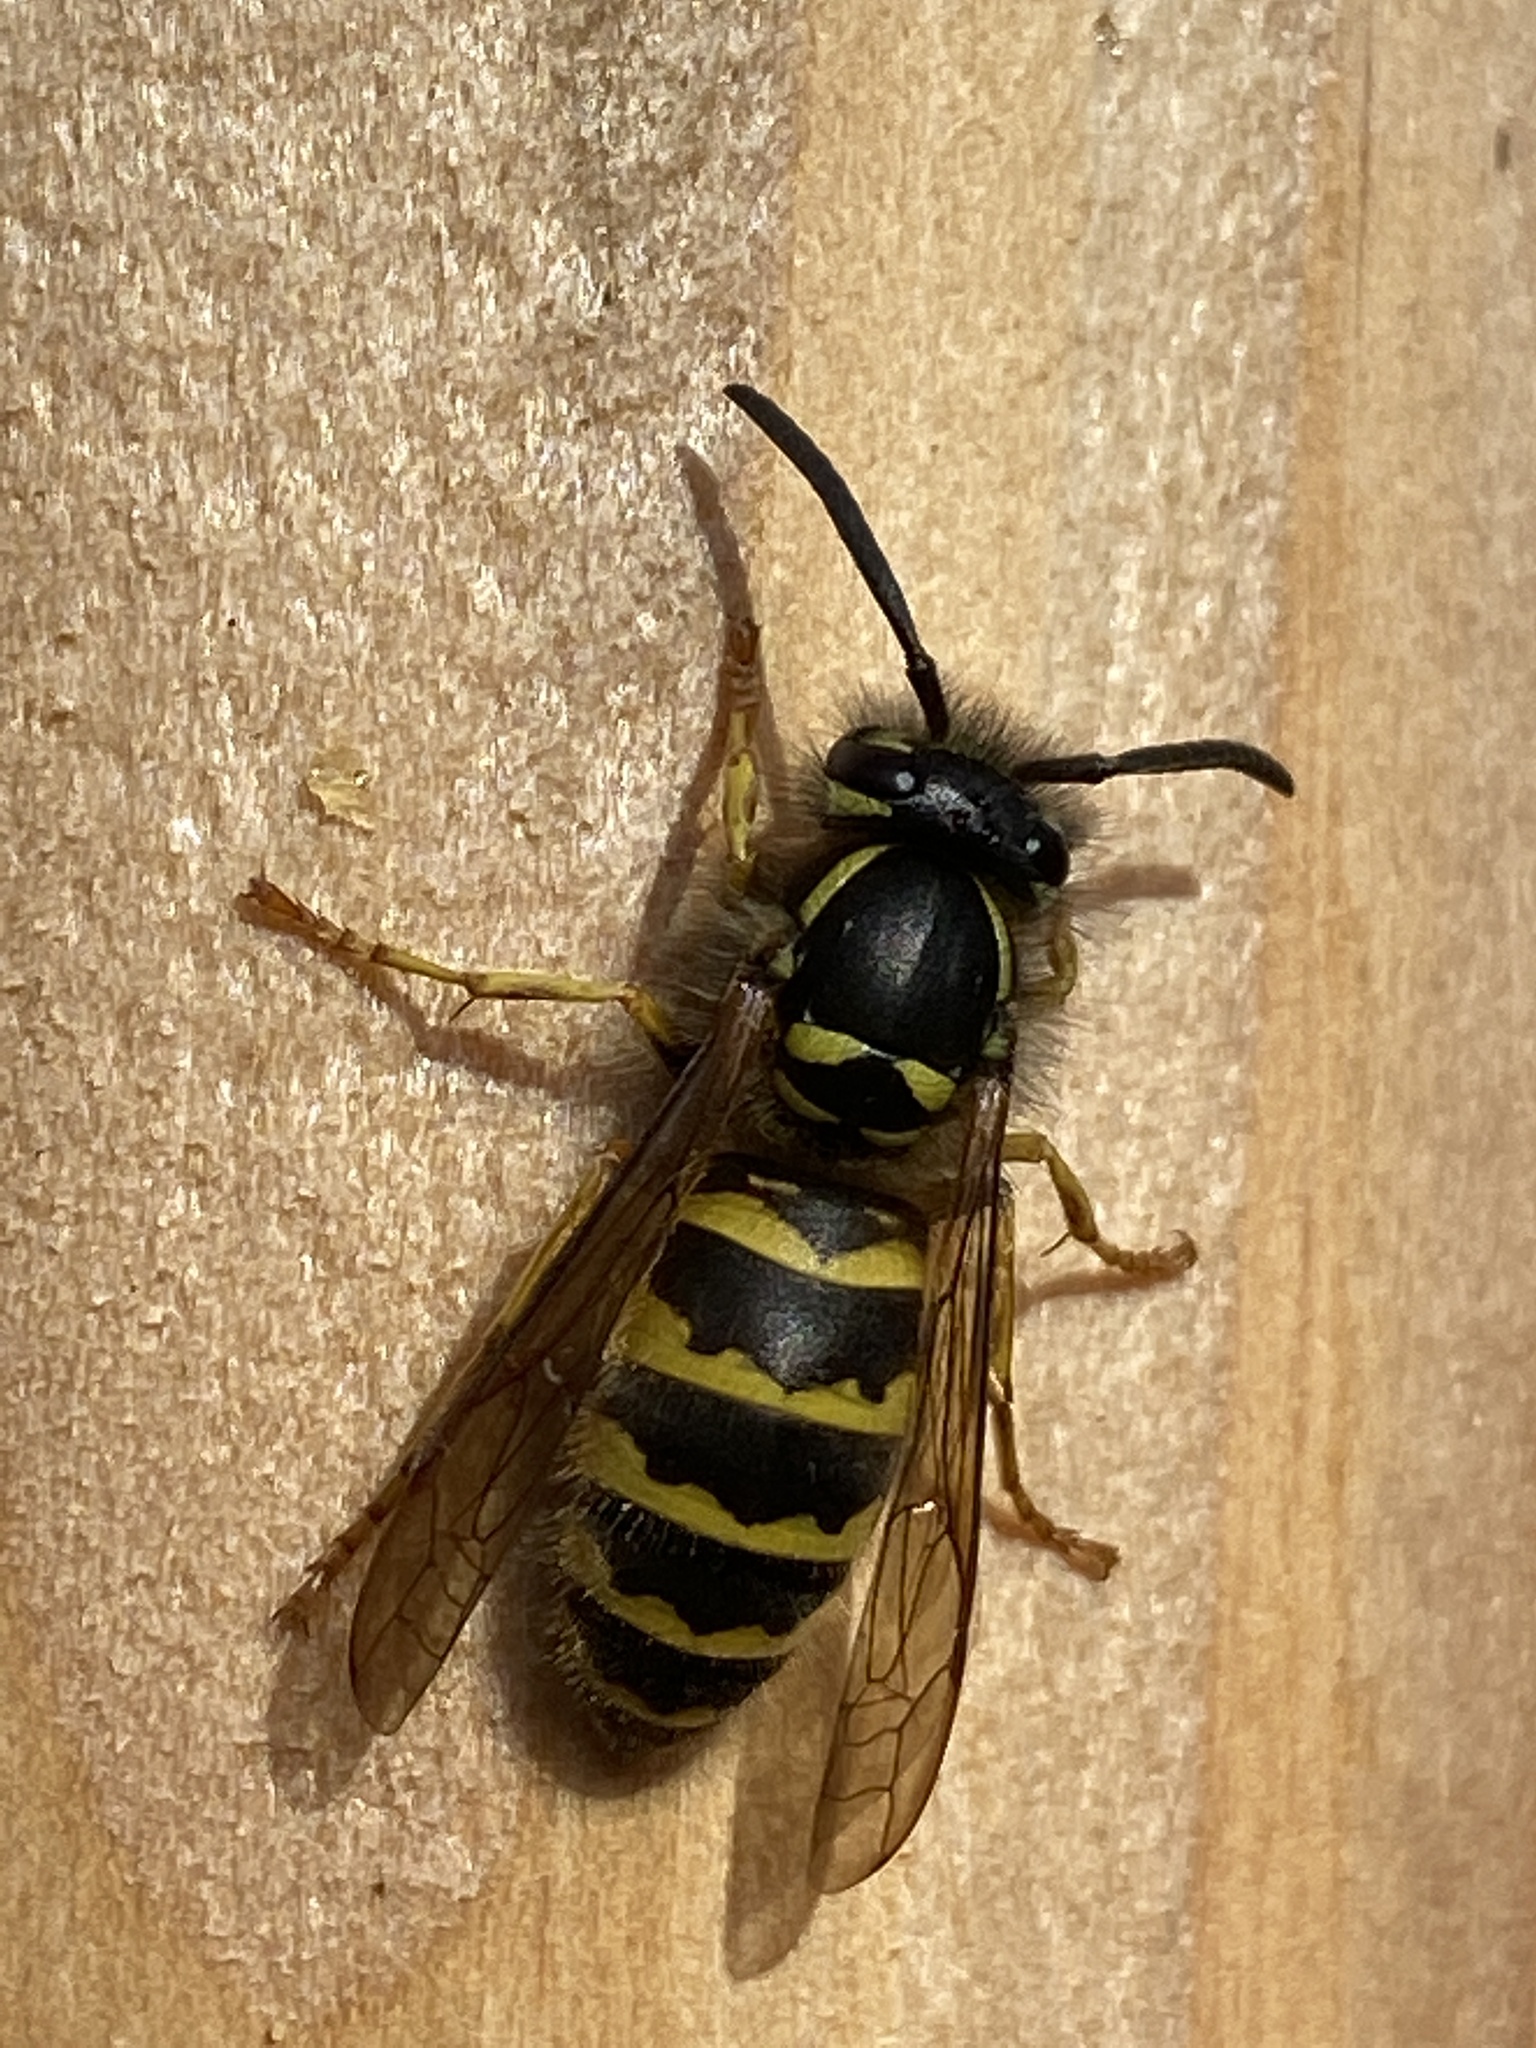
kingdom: Animalia
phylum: Arthropoda
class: Insecta
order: Hymenoptera
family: Vespidae
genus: Vespula
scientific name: Vespula vulgaris
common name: Common wasp
